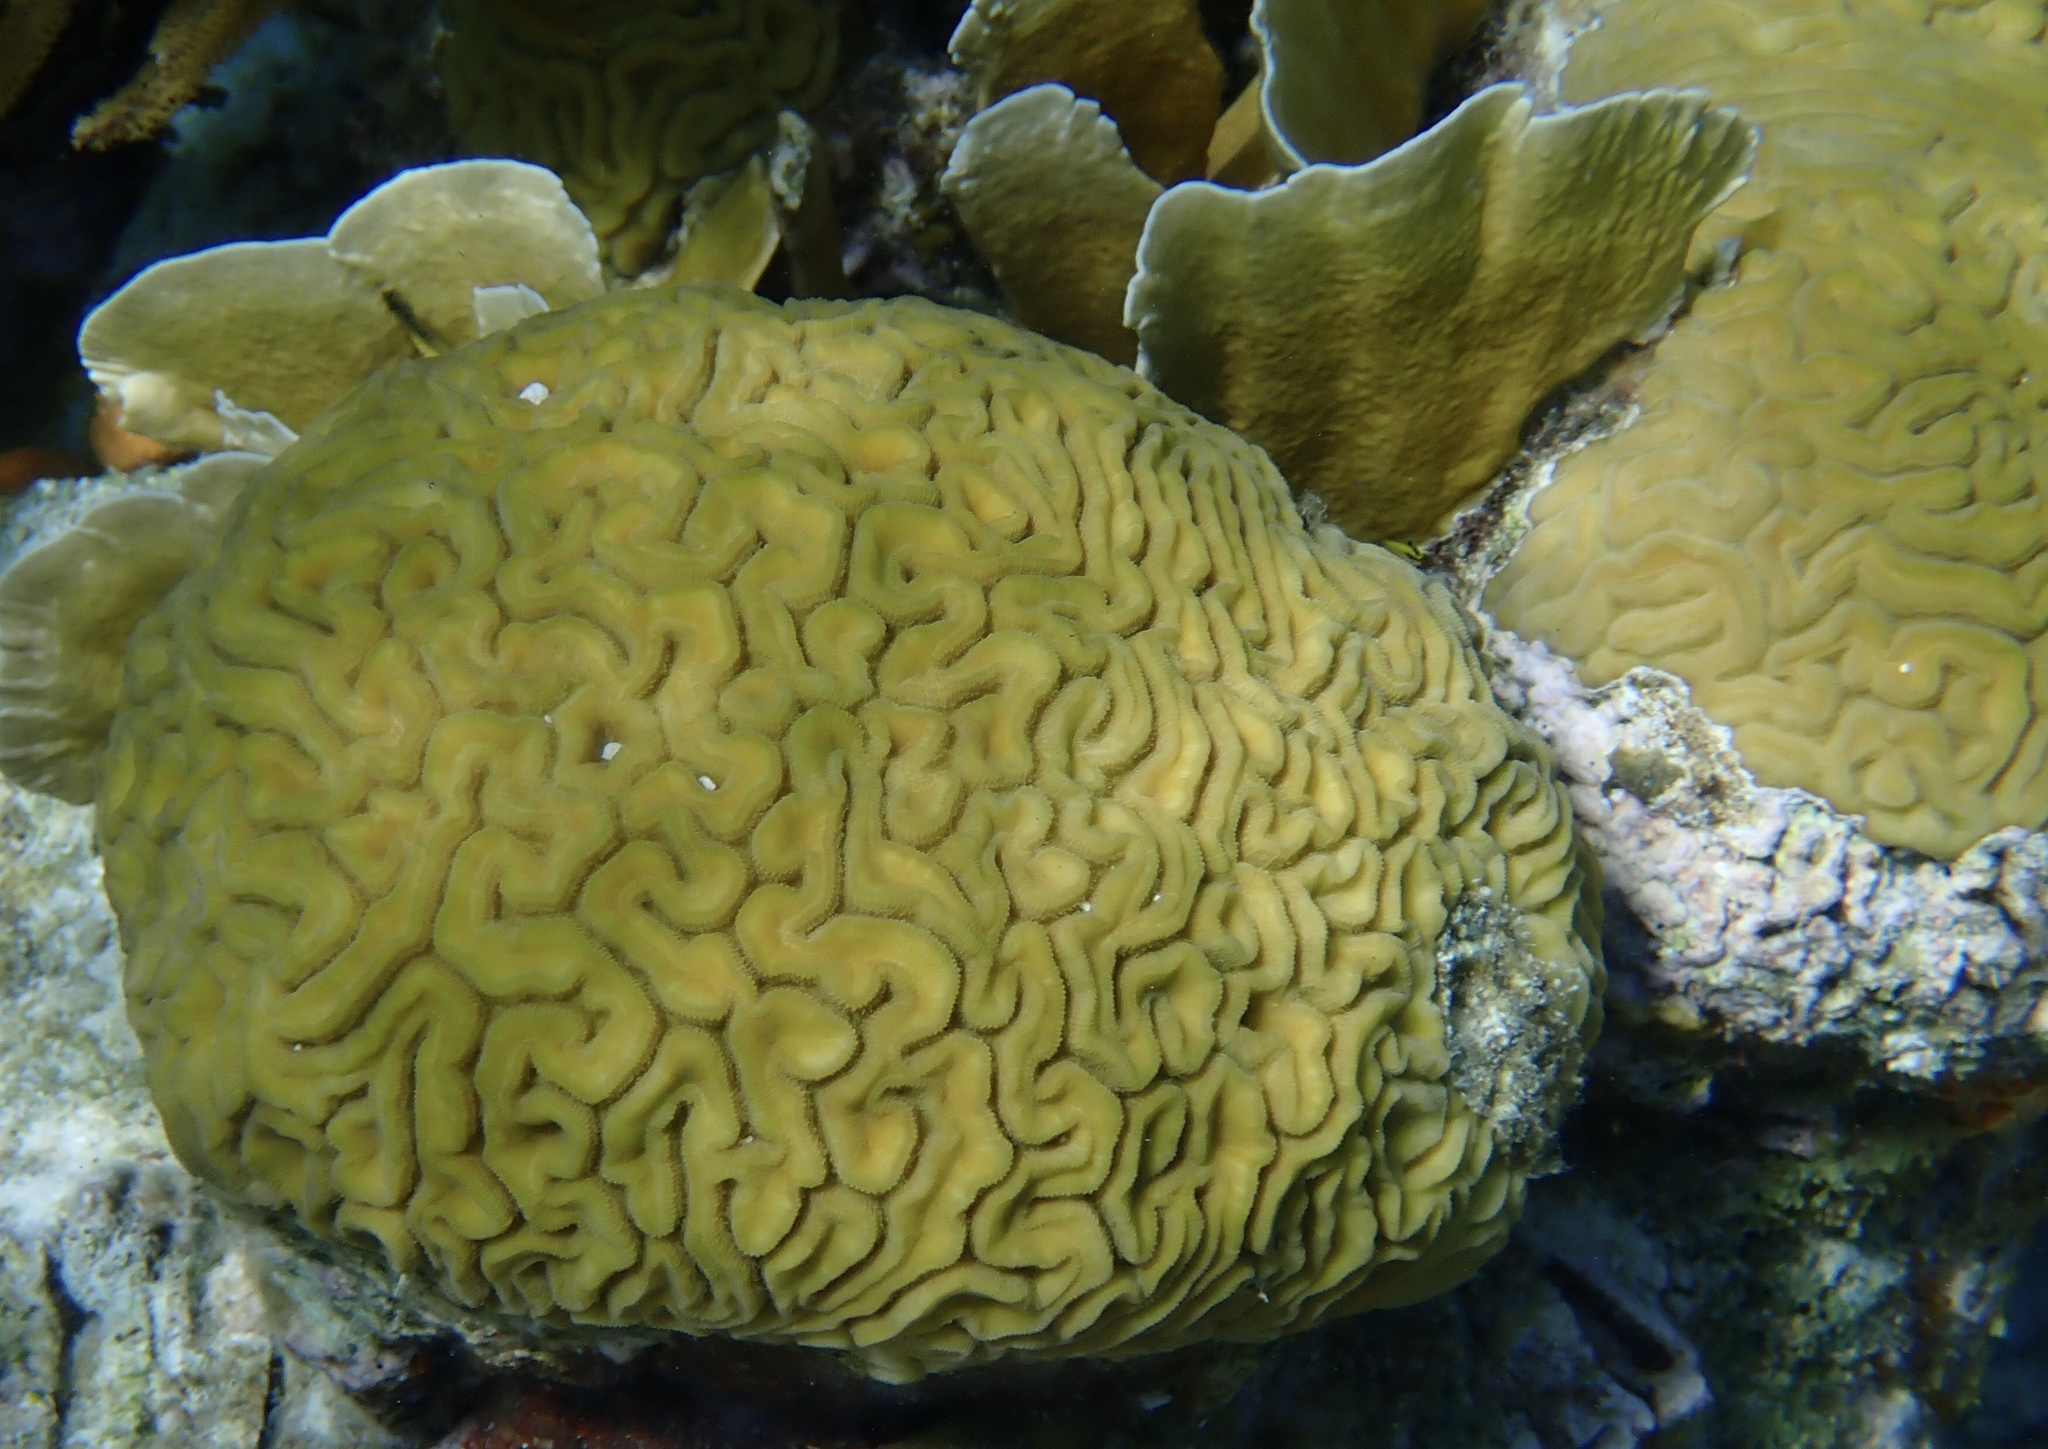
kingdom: Animalia
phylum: Cnidaria
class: Anthozoa
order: Scleractinia
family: Faviidae
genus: Diploria
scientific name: Diploria labyrinthiformis
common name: Grooved brain coral
